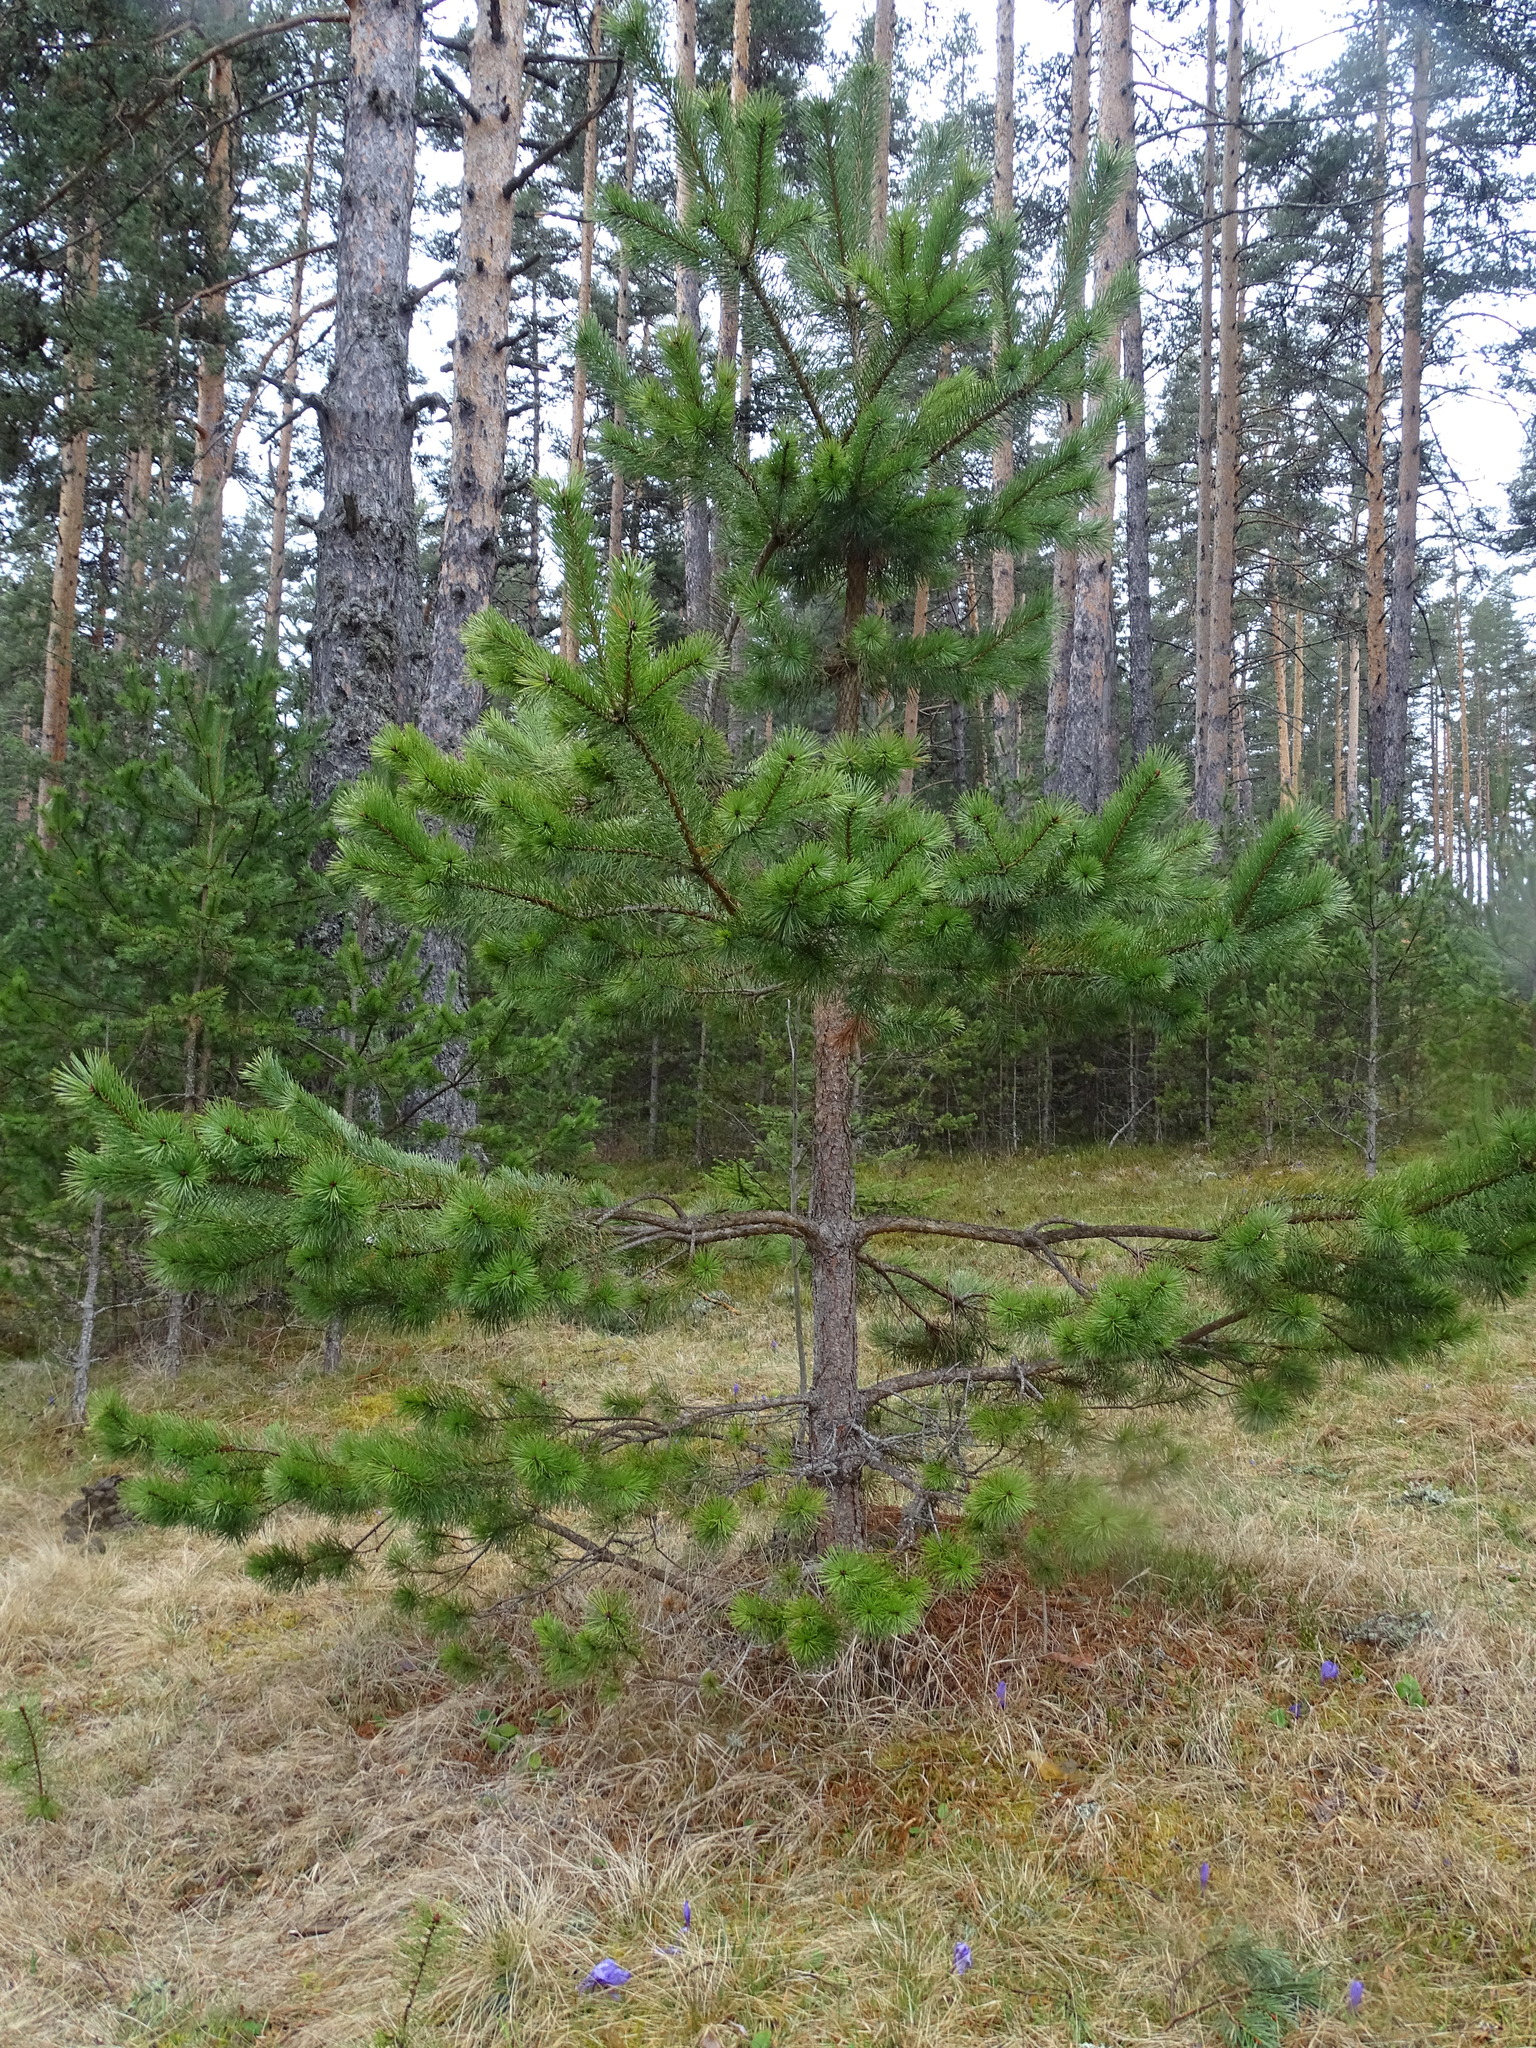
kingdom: Plantae
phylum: Tracheophyta
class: Pinopsida
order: Pinales
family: Pinaceae
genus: Pinus
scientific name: Pinus sylvestris
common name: Scots pine
